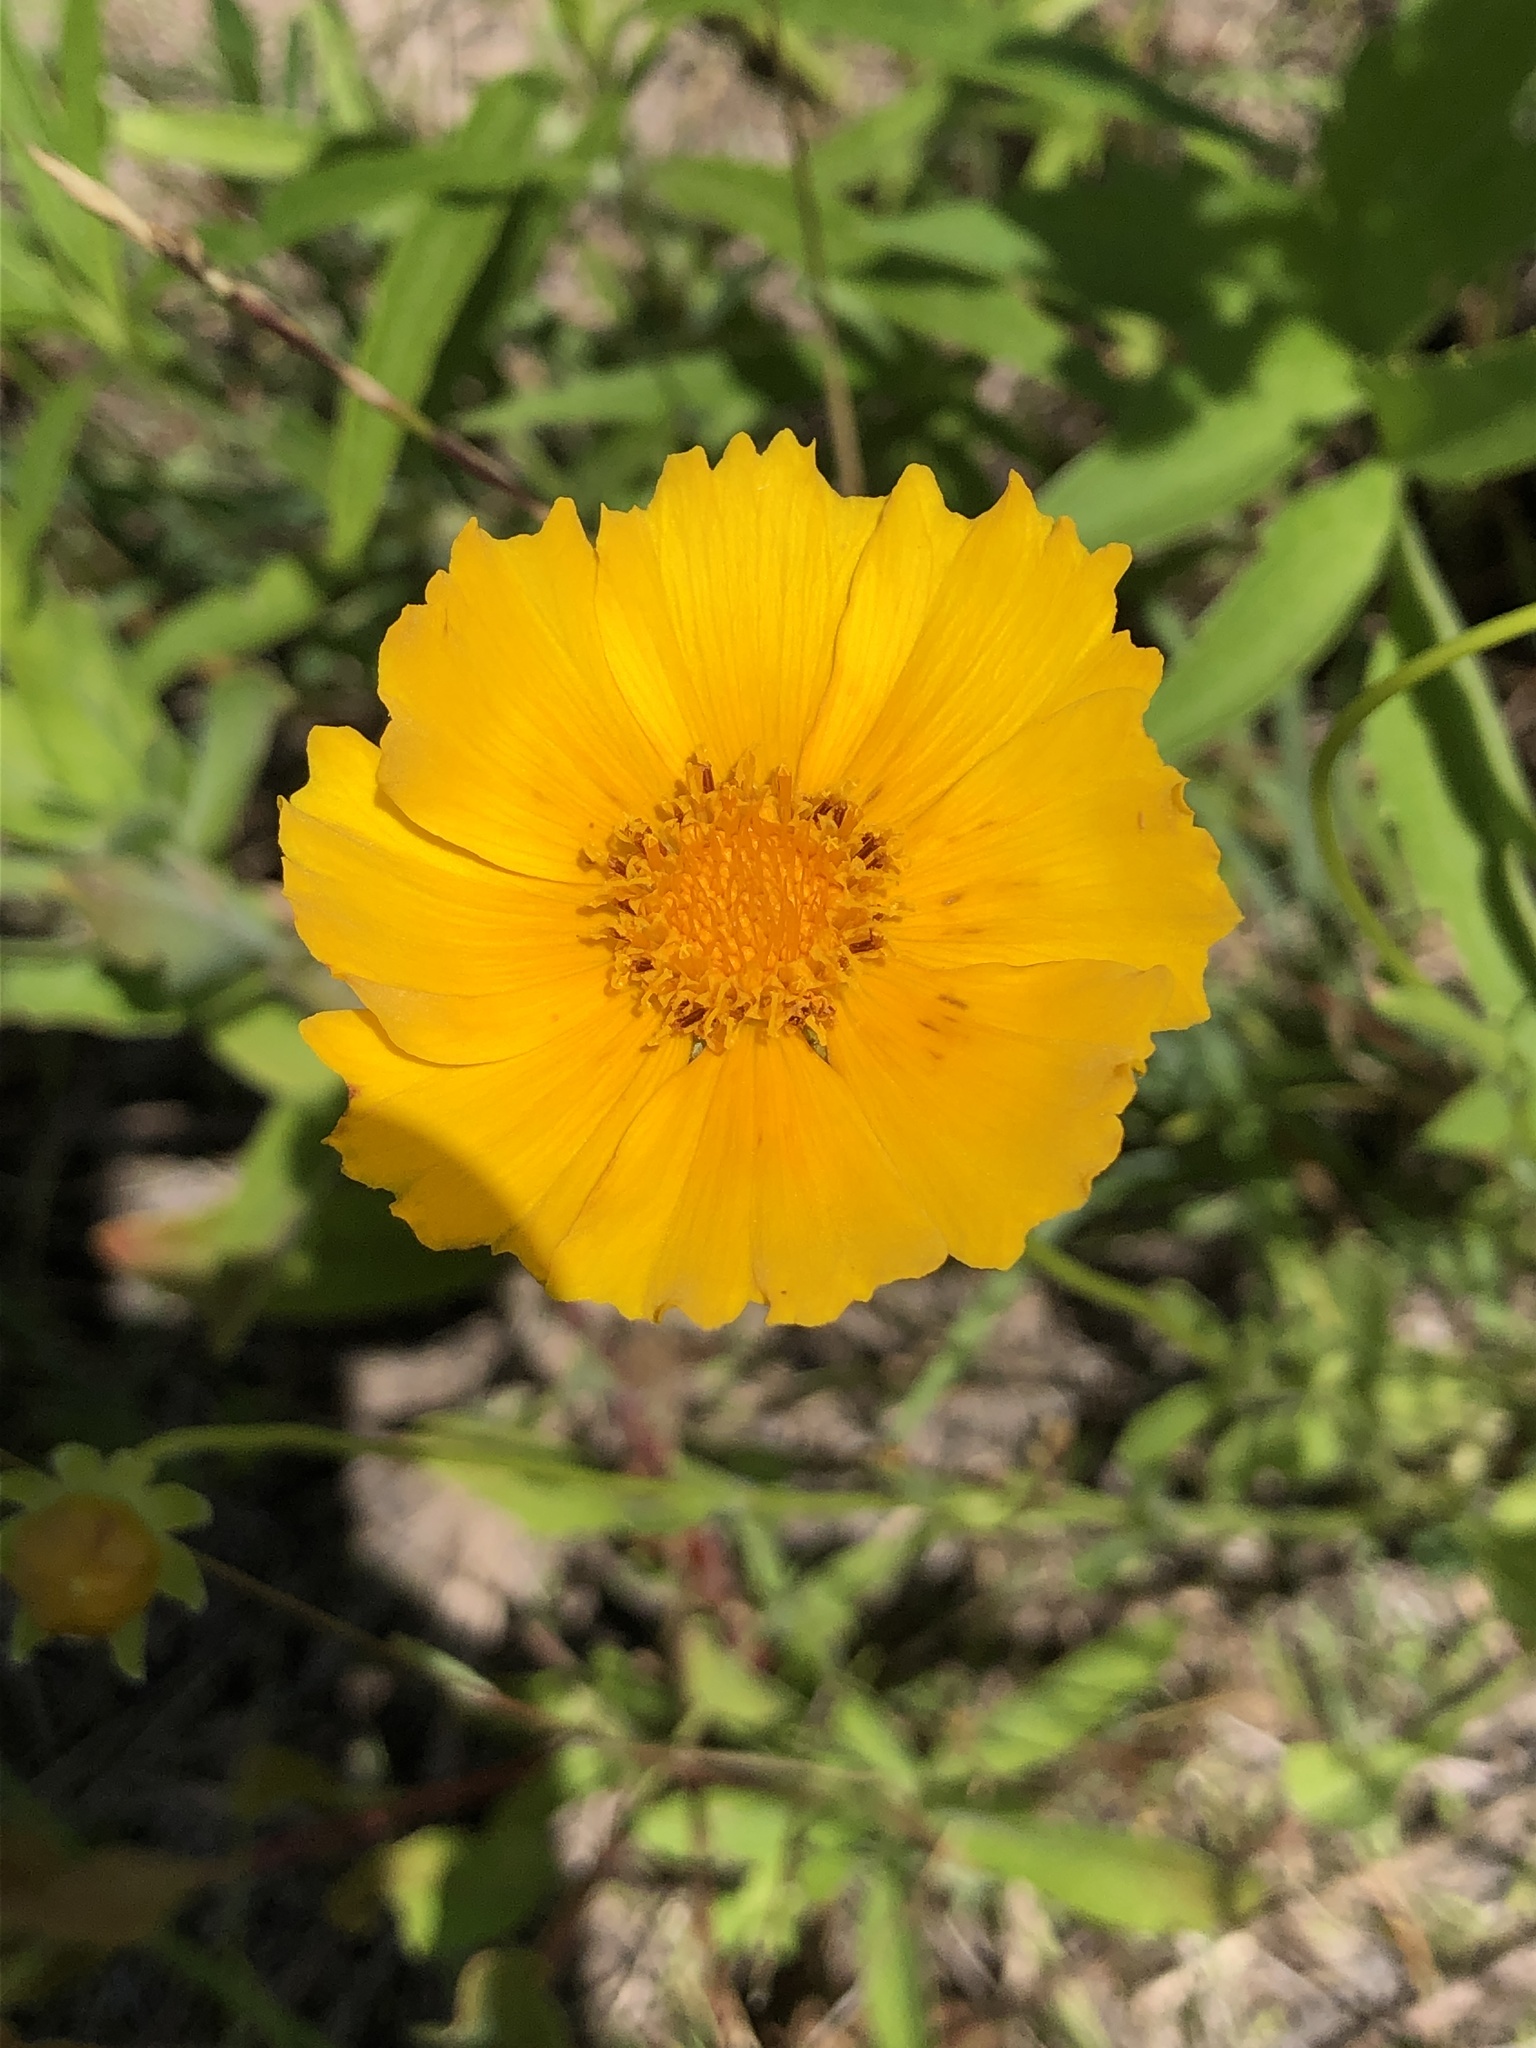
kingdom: Plantae
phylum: Tracheophyta
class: Magnoliopsida
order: Asterales
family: Asteraceae
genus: Coreopsis
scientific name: Coreopsis lanceolata
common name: Garden coreopsis
